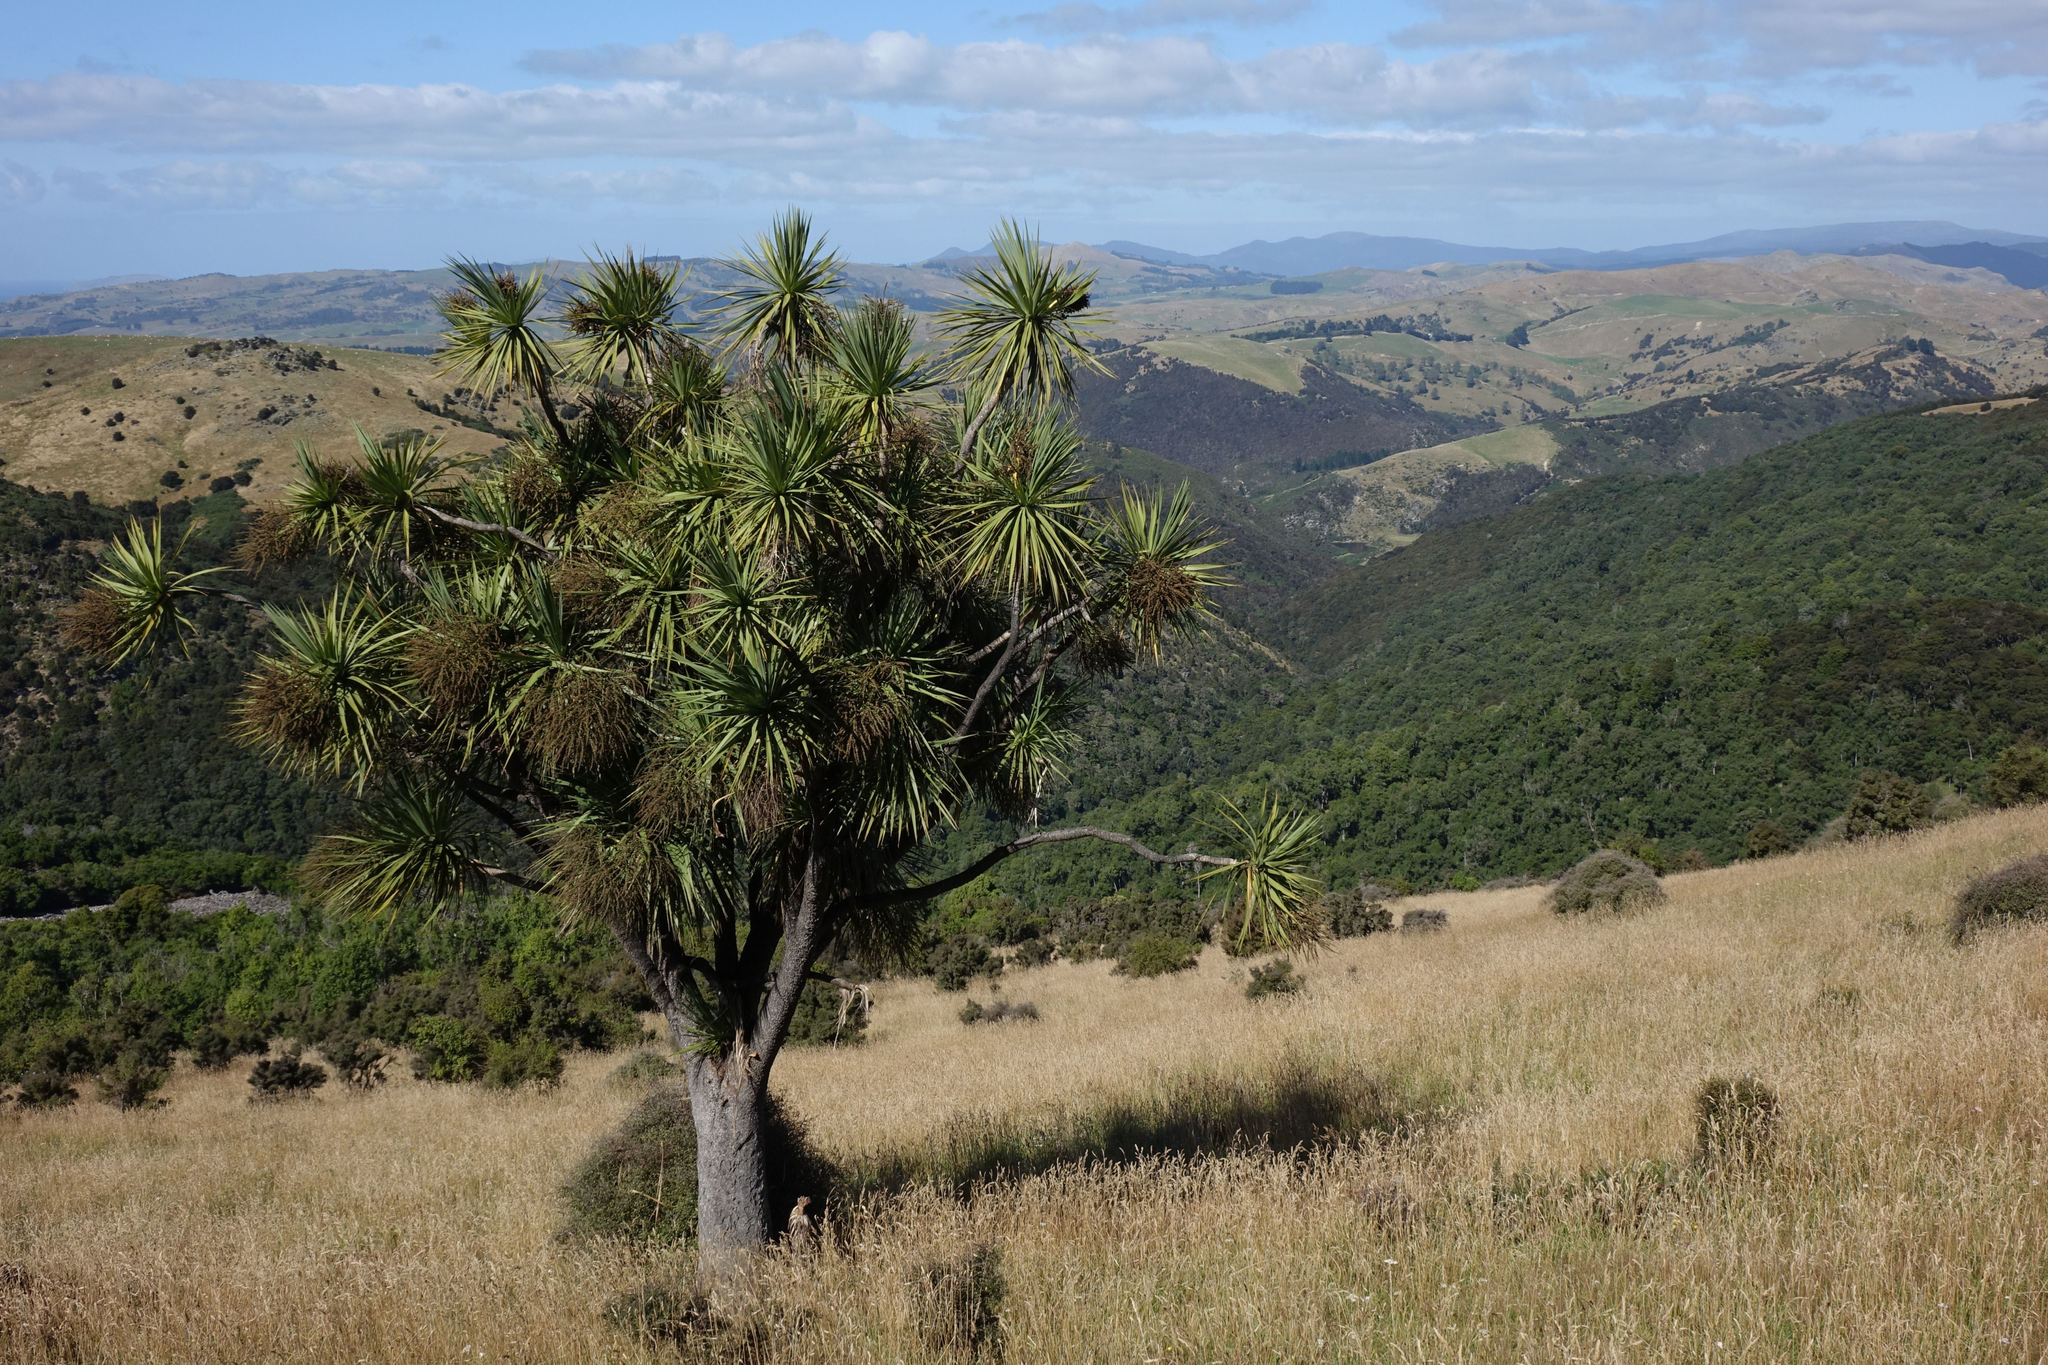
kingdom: Plantae
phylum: Tracheophyta
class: Liliopsida
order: Asparagales
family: Asparagaceae
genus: Cordyline
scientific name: Cordyline australis
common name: Cabbage-palm
